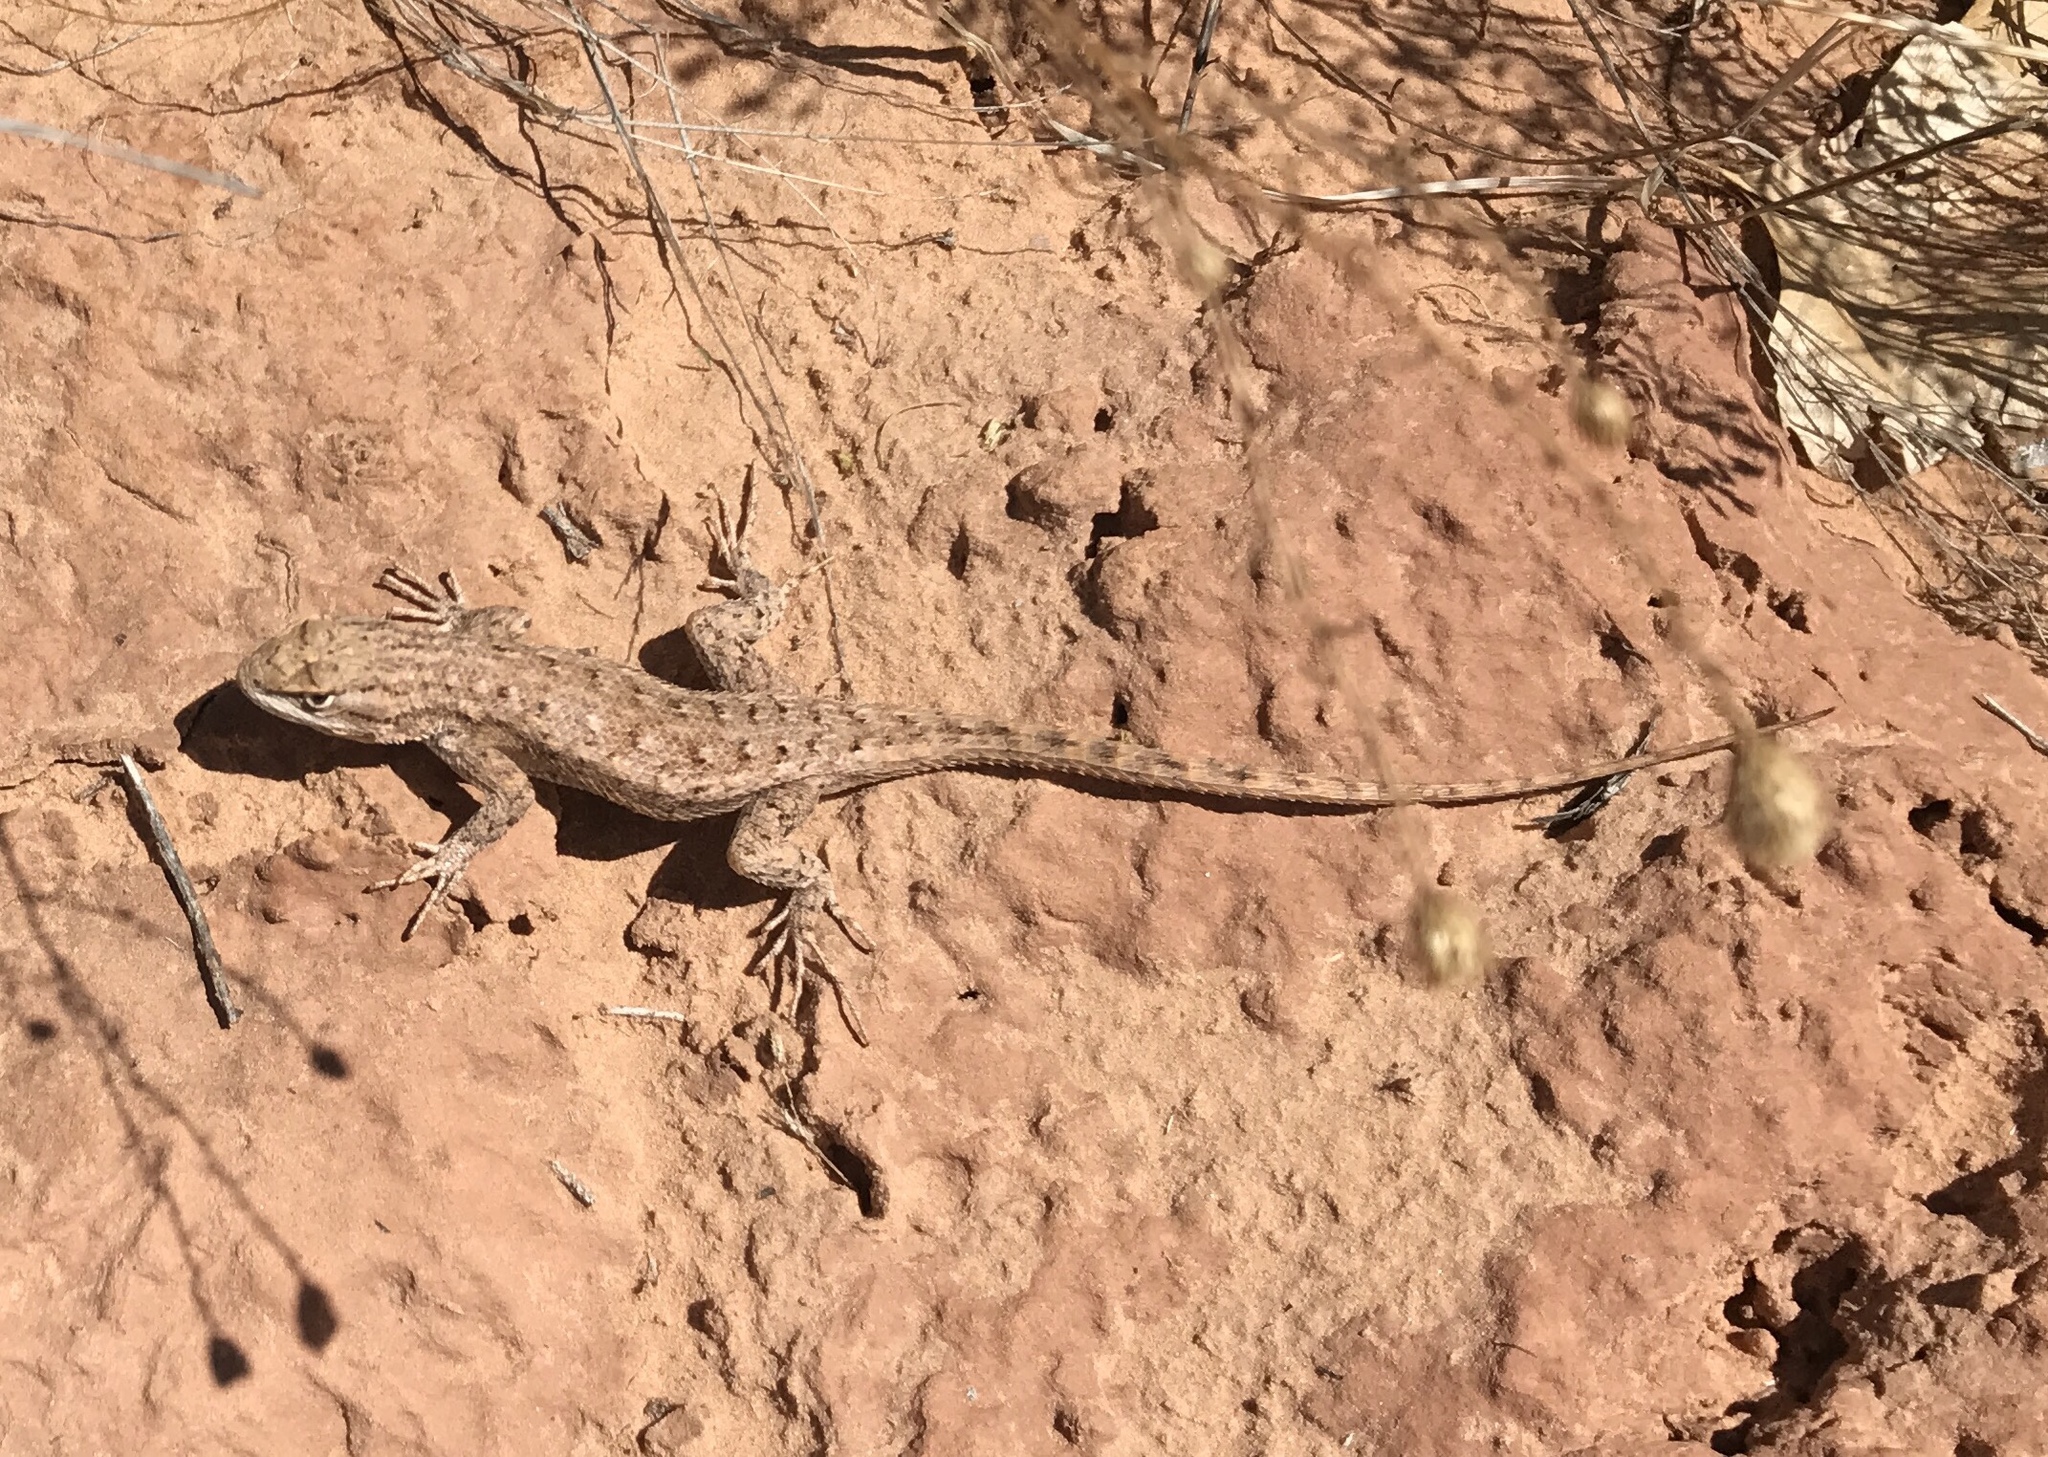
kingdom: Animalia
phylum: Chordata
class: Squamata
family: Phrynosomatidae
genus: Sceloporus
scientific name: Sceloporus tristichus
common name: Plateau fence lizard
